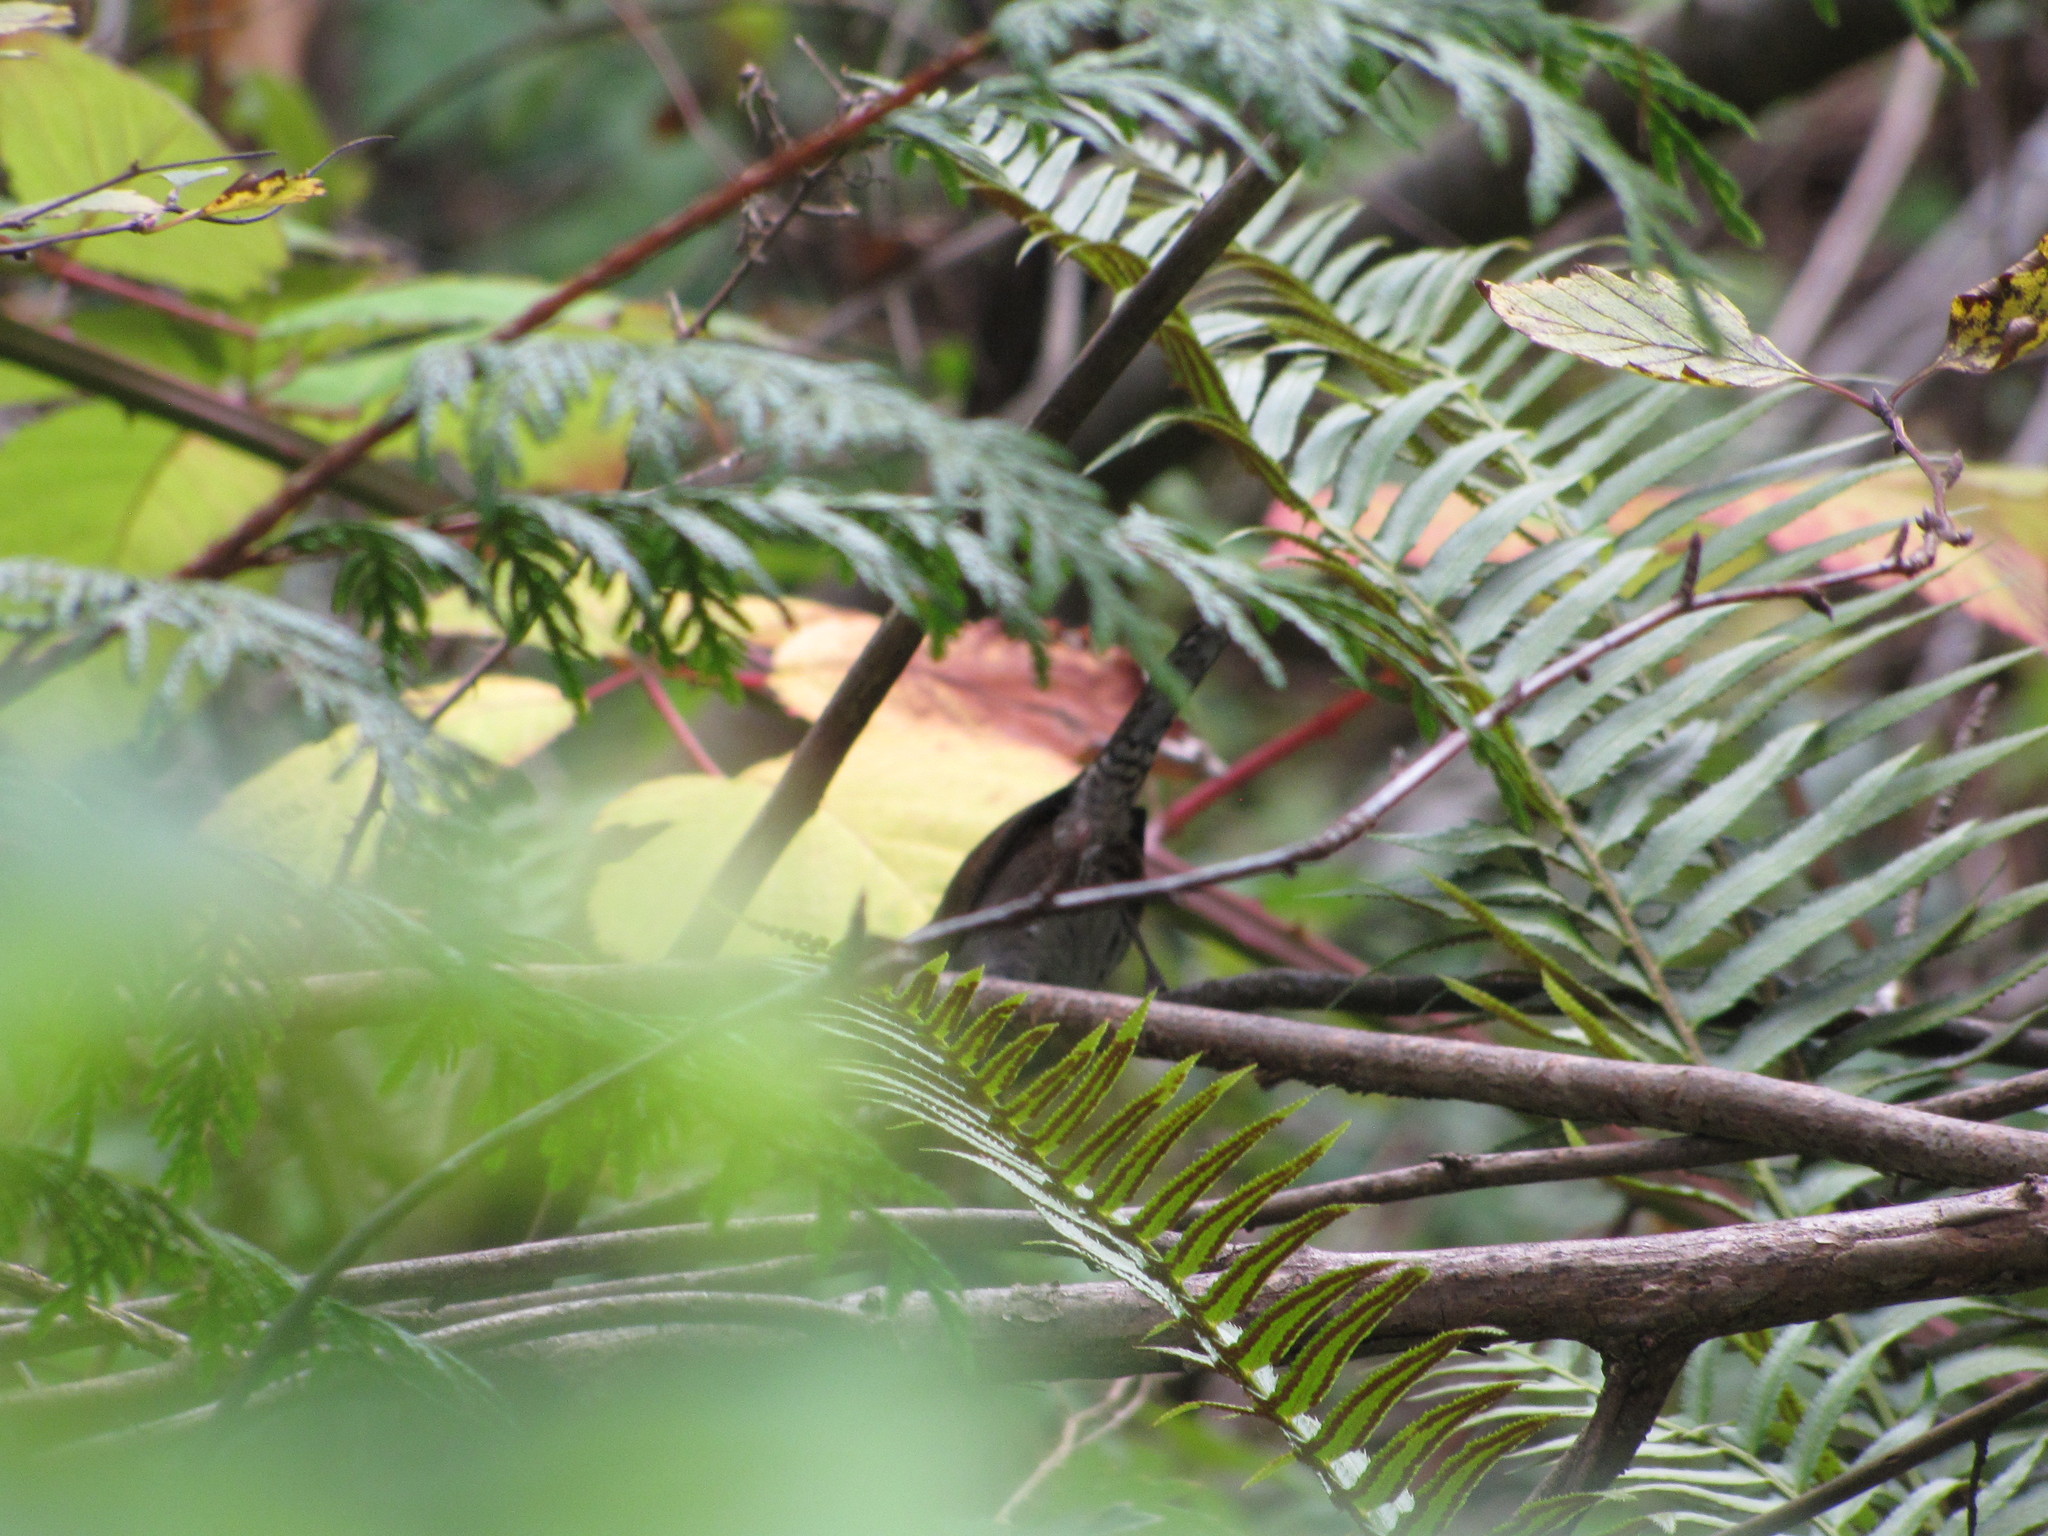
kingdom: Animalia
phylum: Chordata
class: Aves
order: Passeriformes
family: Troglodytidae
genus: Thryomanes
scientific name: Thryomanes bewickii
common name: Bewick's wren
